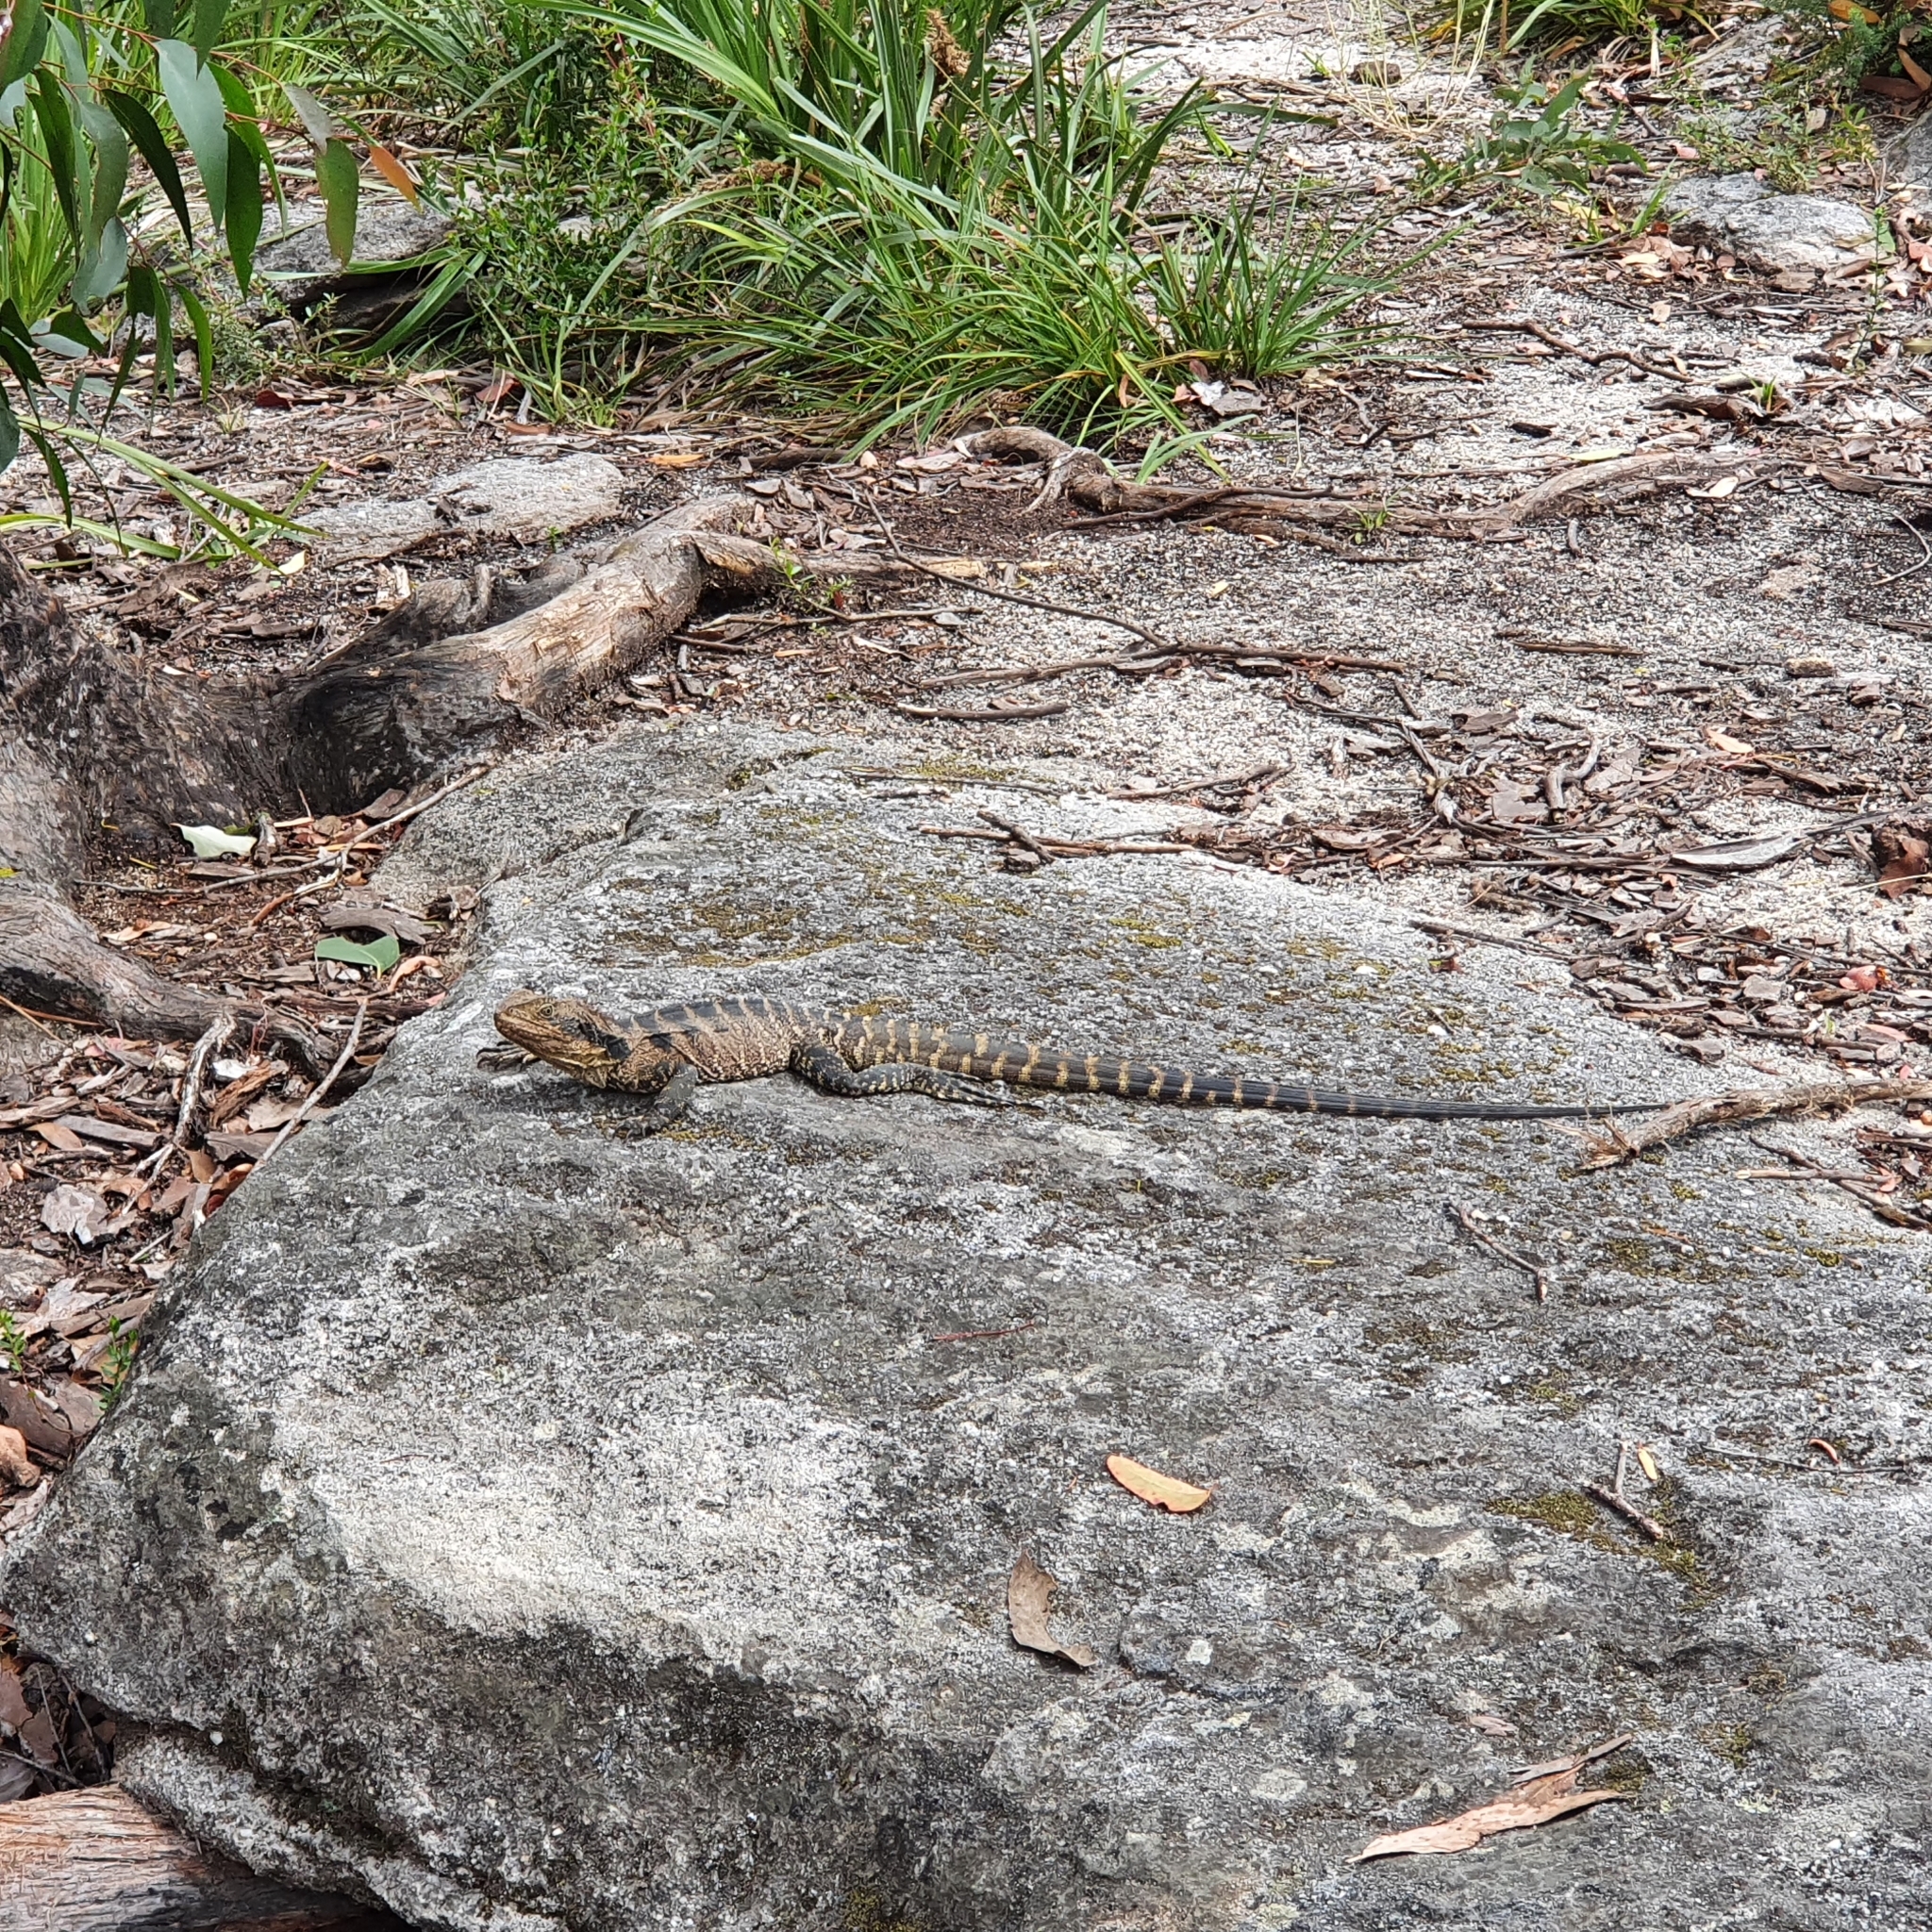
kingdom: Animalia
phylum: Chordata
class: Squamata
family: Agamidae
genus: Intellagama
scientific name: Intellagama lesueurii
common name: Eastern water dragon
